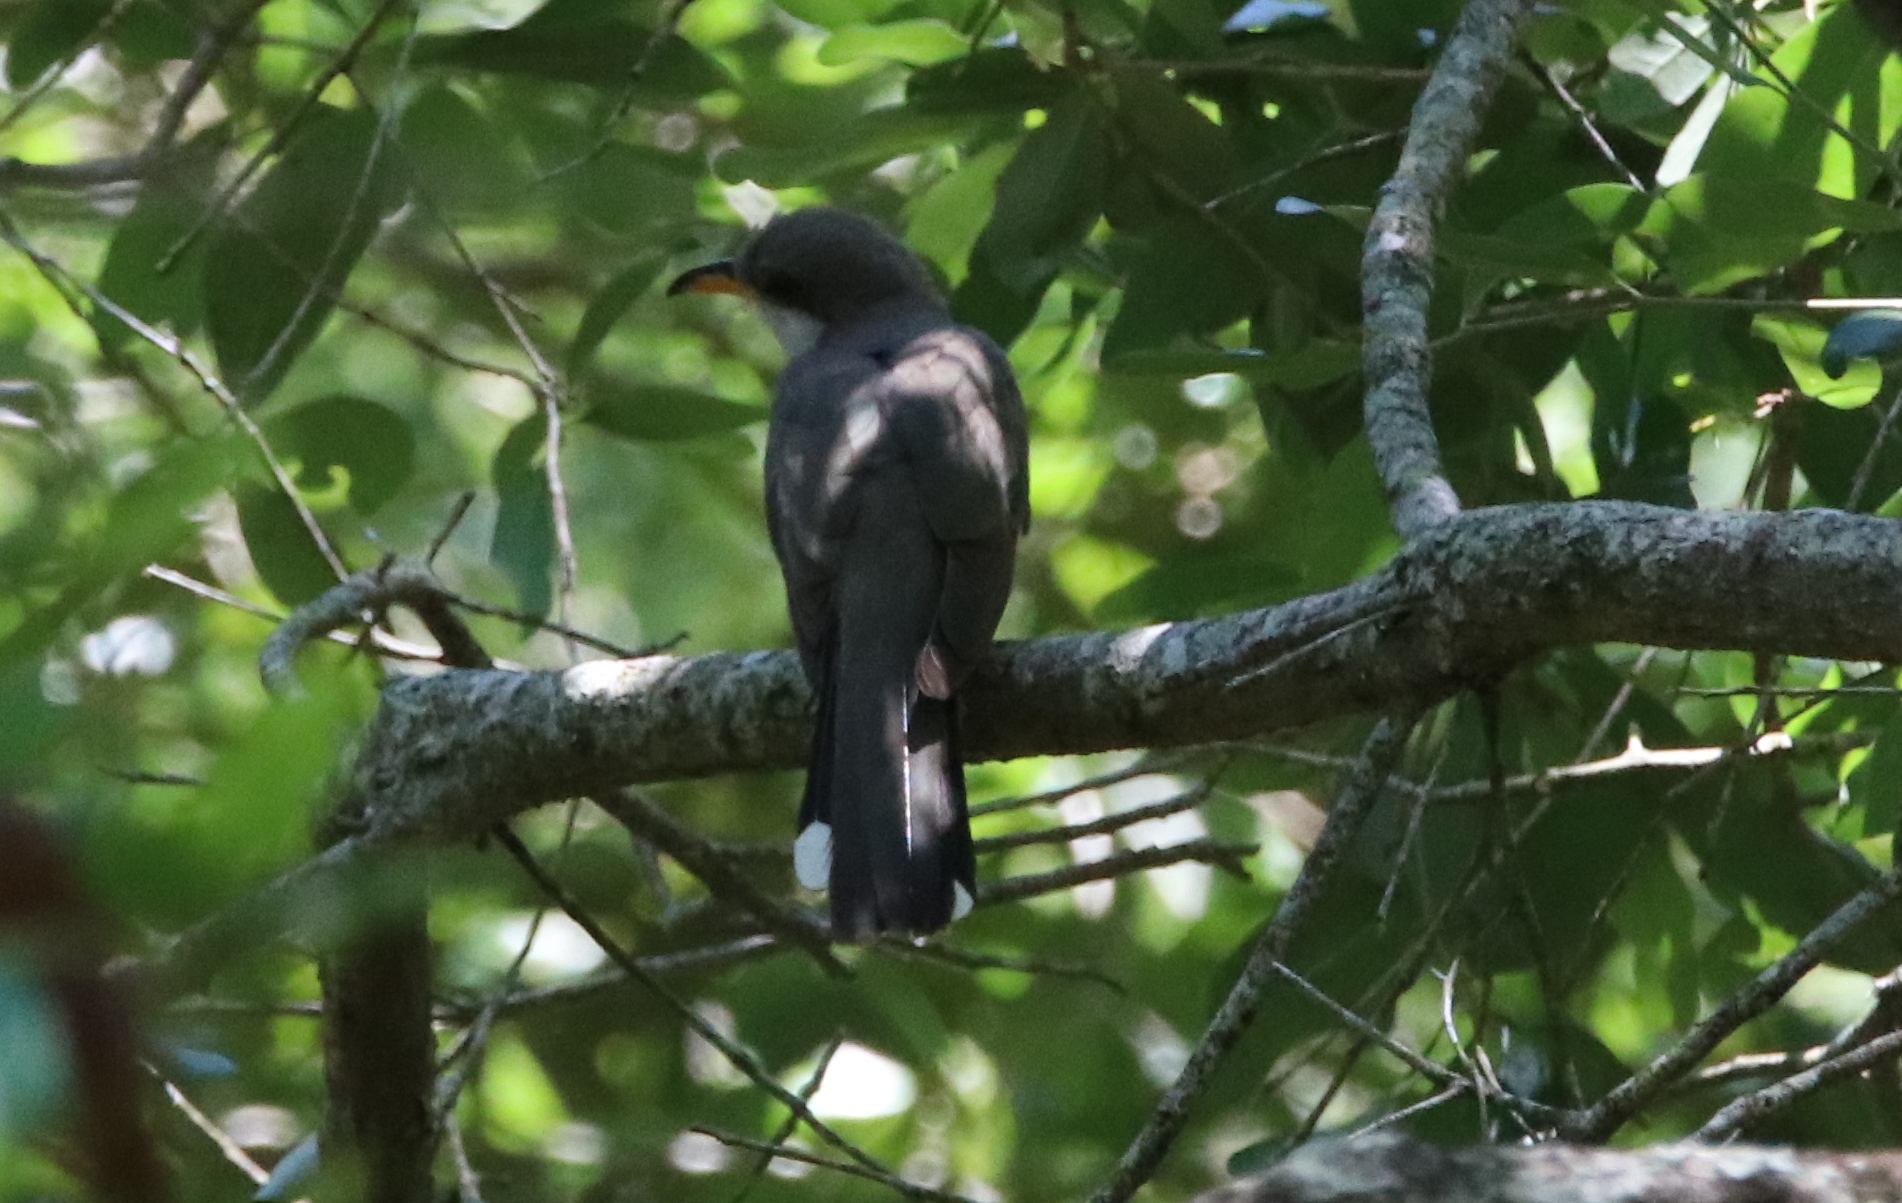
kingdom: Animalia
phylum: Chordata
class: Aves
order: Cuculiformes
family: Cuculidae
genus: Coccyzus
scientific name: Coccyzus americanus
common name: Yellow-billed cuckoo
